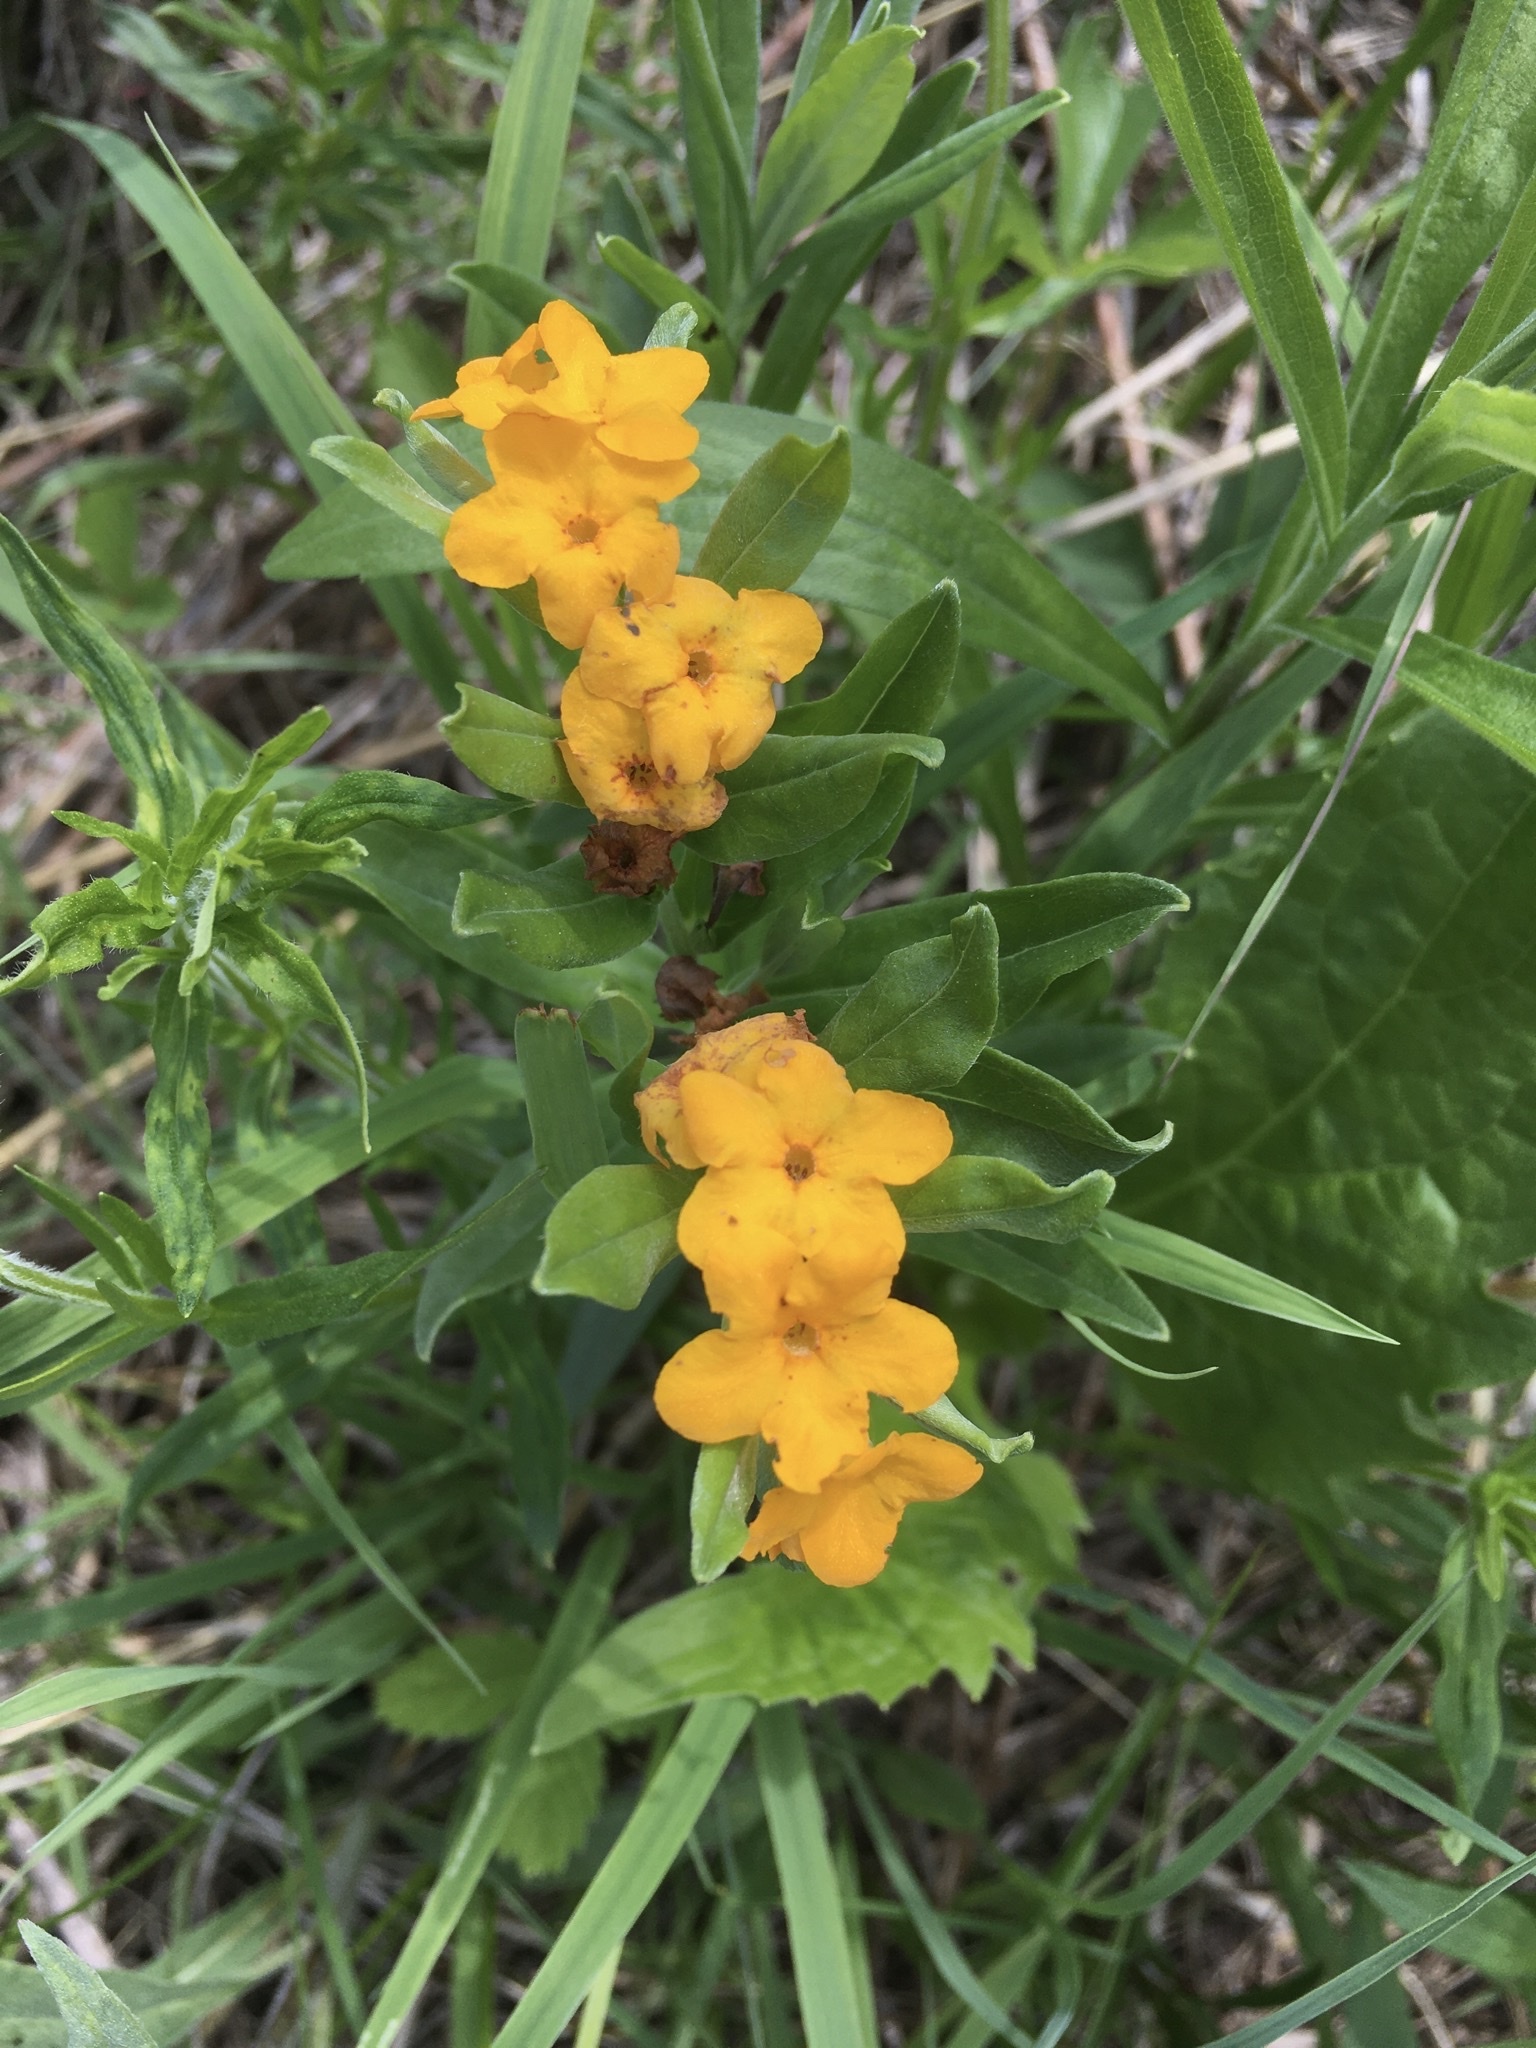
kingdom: Plantae
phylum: Tracheophyta
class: Magnoliopsida
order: Boraginales
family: Boraginaceae
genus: Lithospermum
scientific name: Lithospermum canescens
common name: Hoary puccoon
